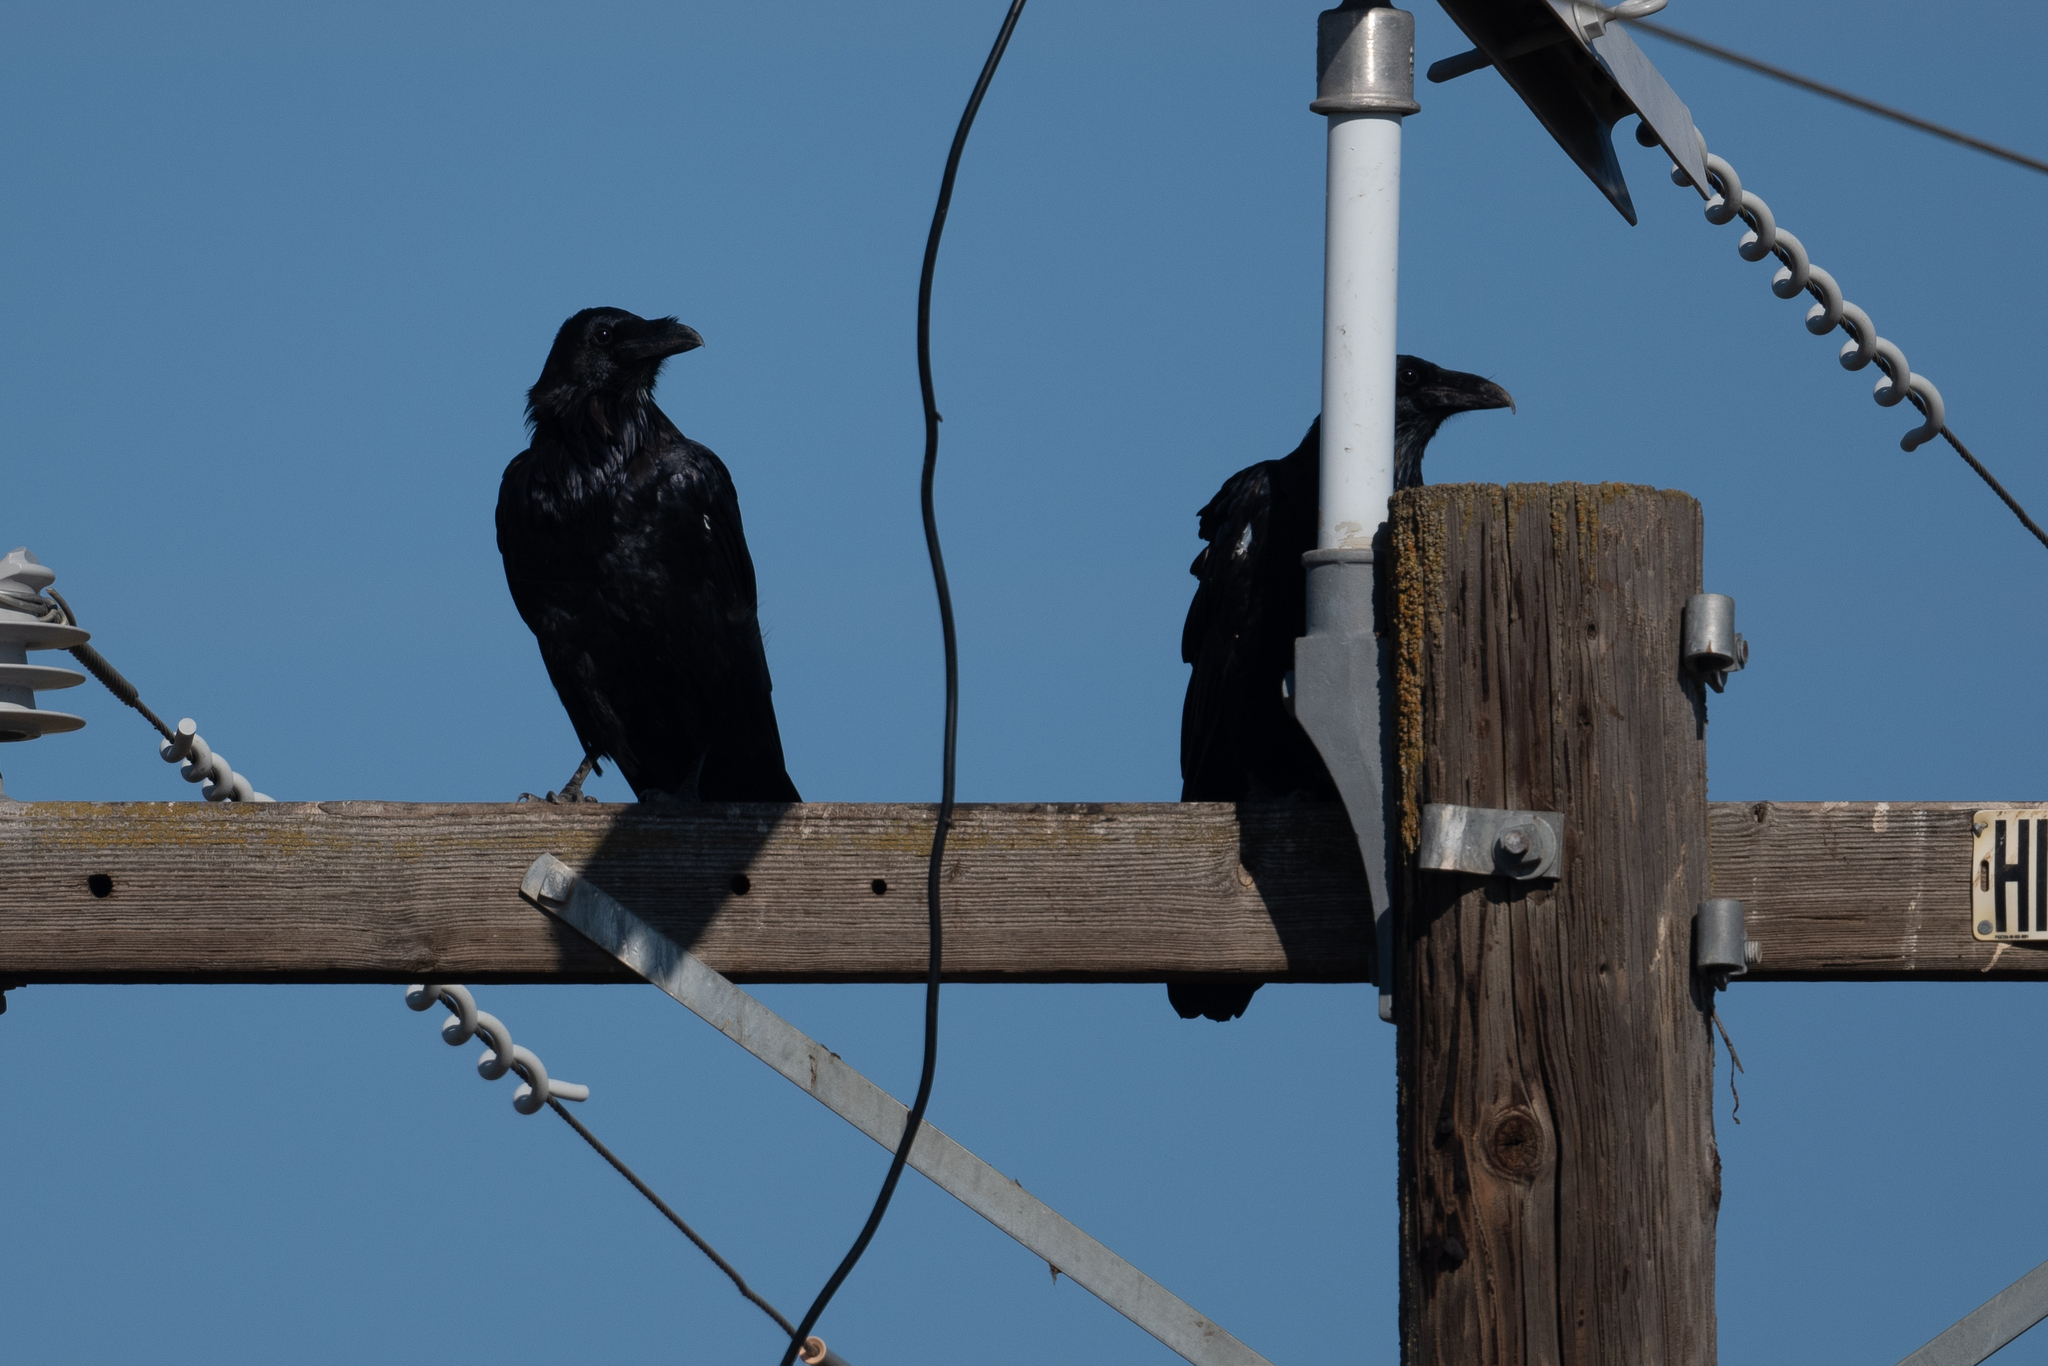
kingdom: Animalia
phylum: Chordata
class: Aves
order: Passeriformes
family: Corvidae
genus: Corvus
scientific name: Corvus corax
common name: Common raven
